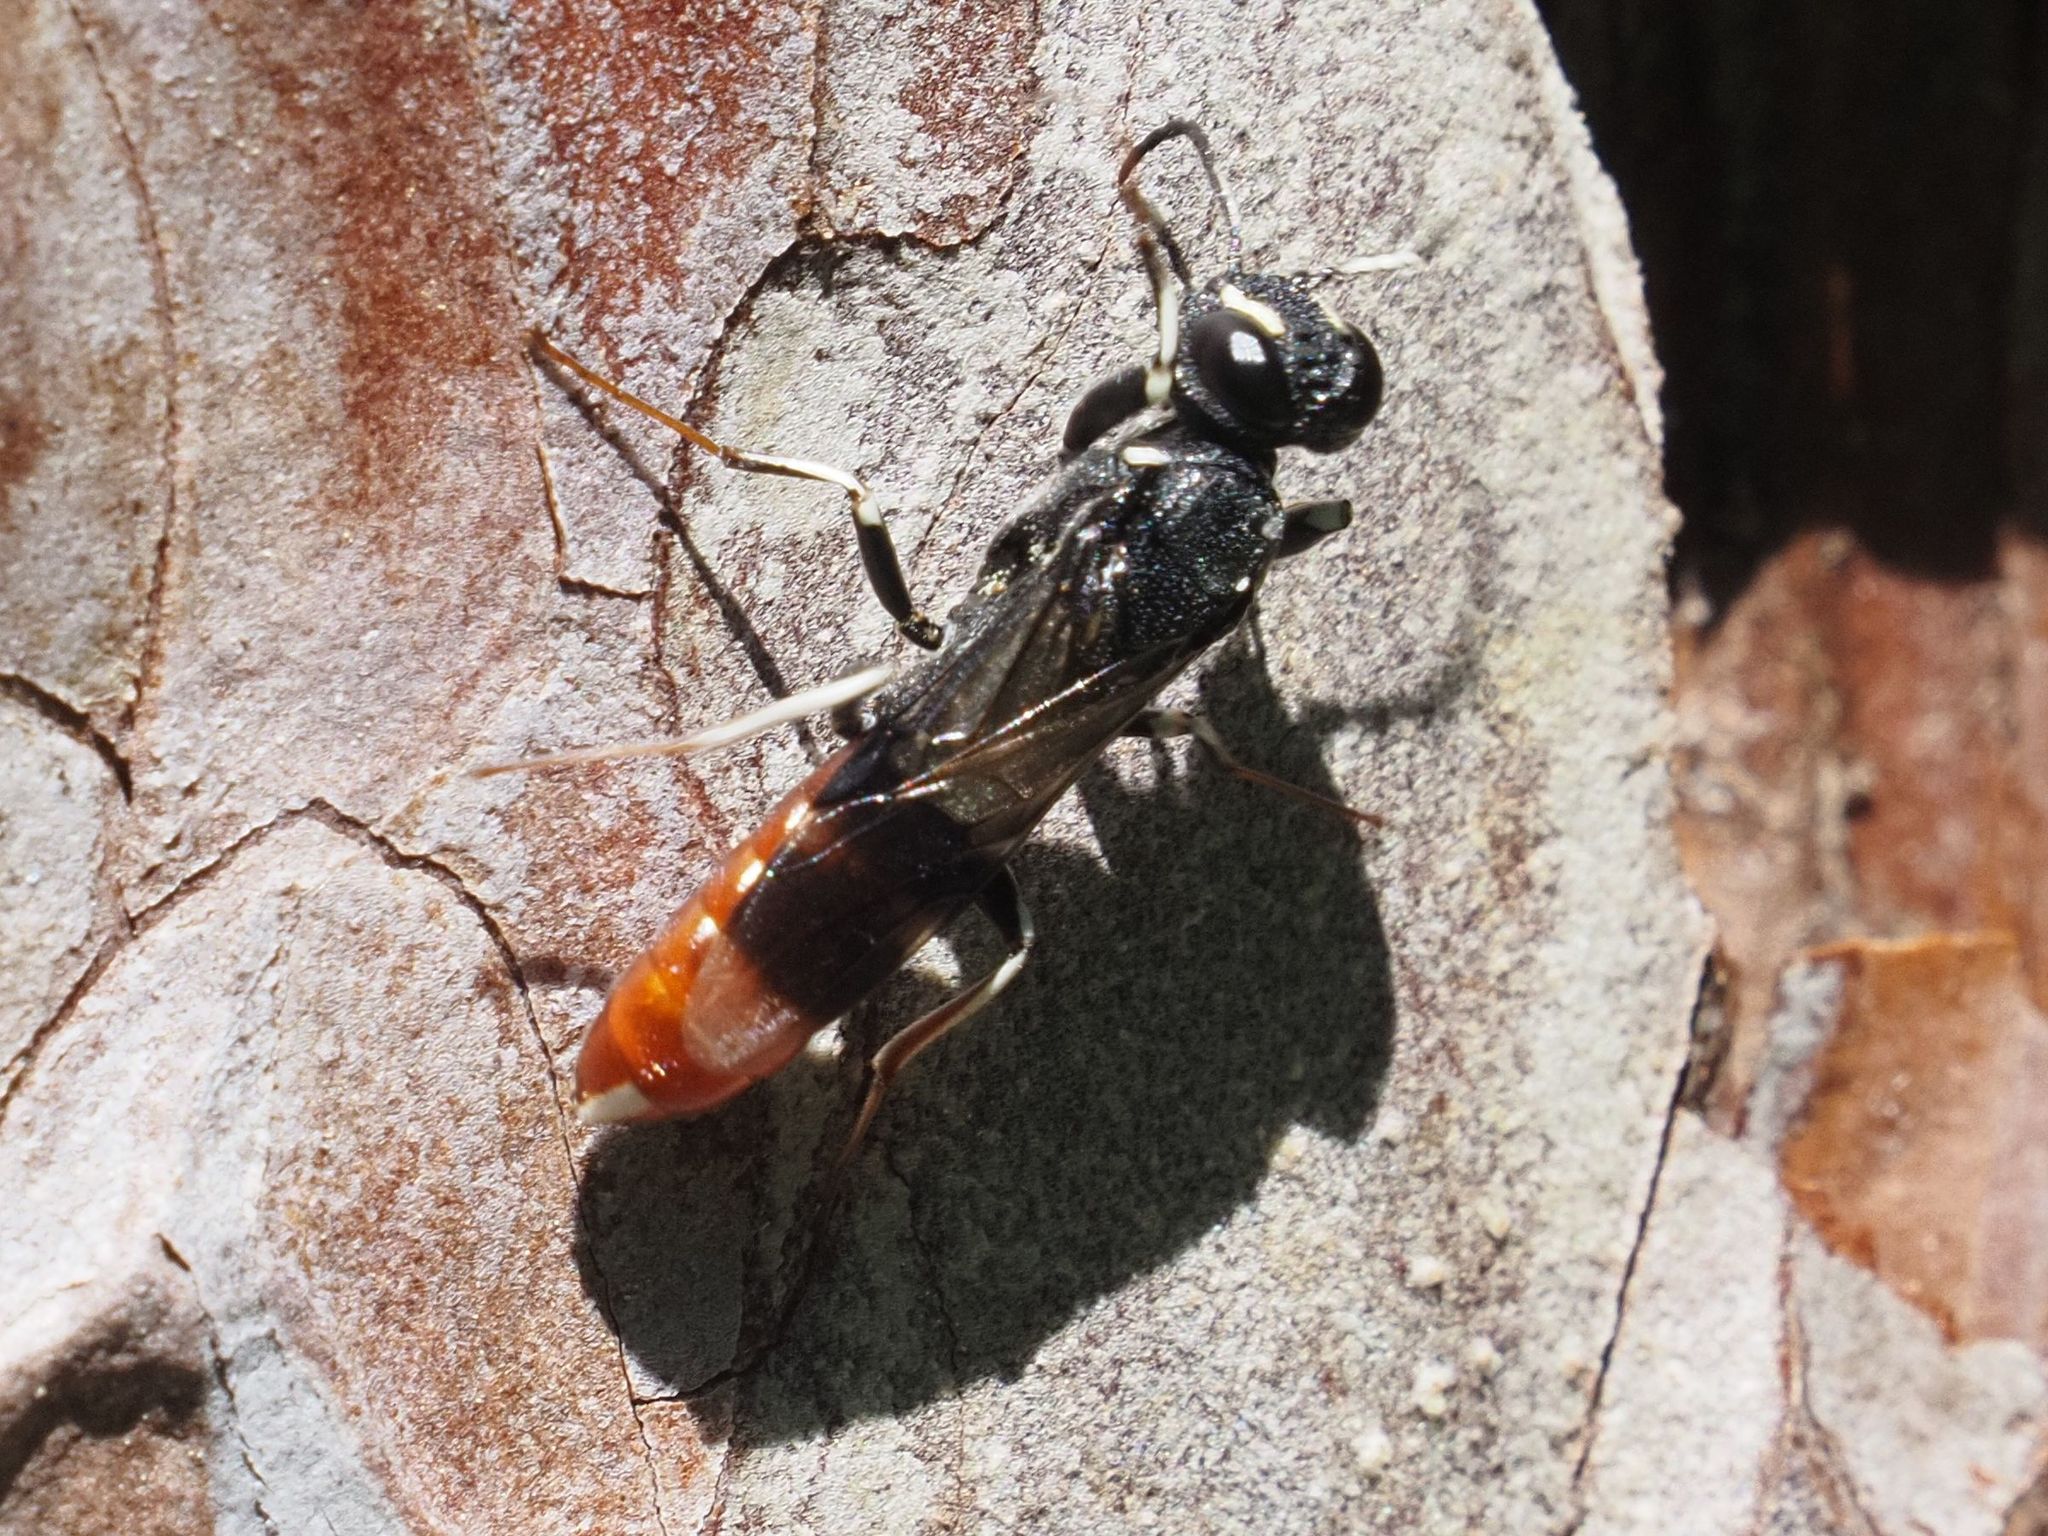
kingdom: Animalia
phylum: Arthropoda
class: Insecta
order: Hymenoptera
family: Orussusidae
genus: Orussus
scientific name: Orussus abietinus
